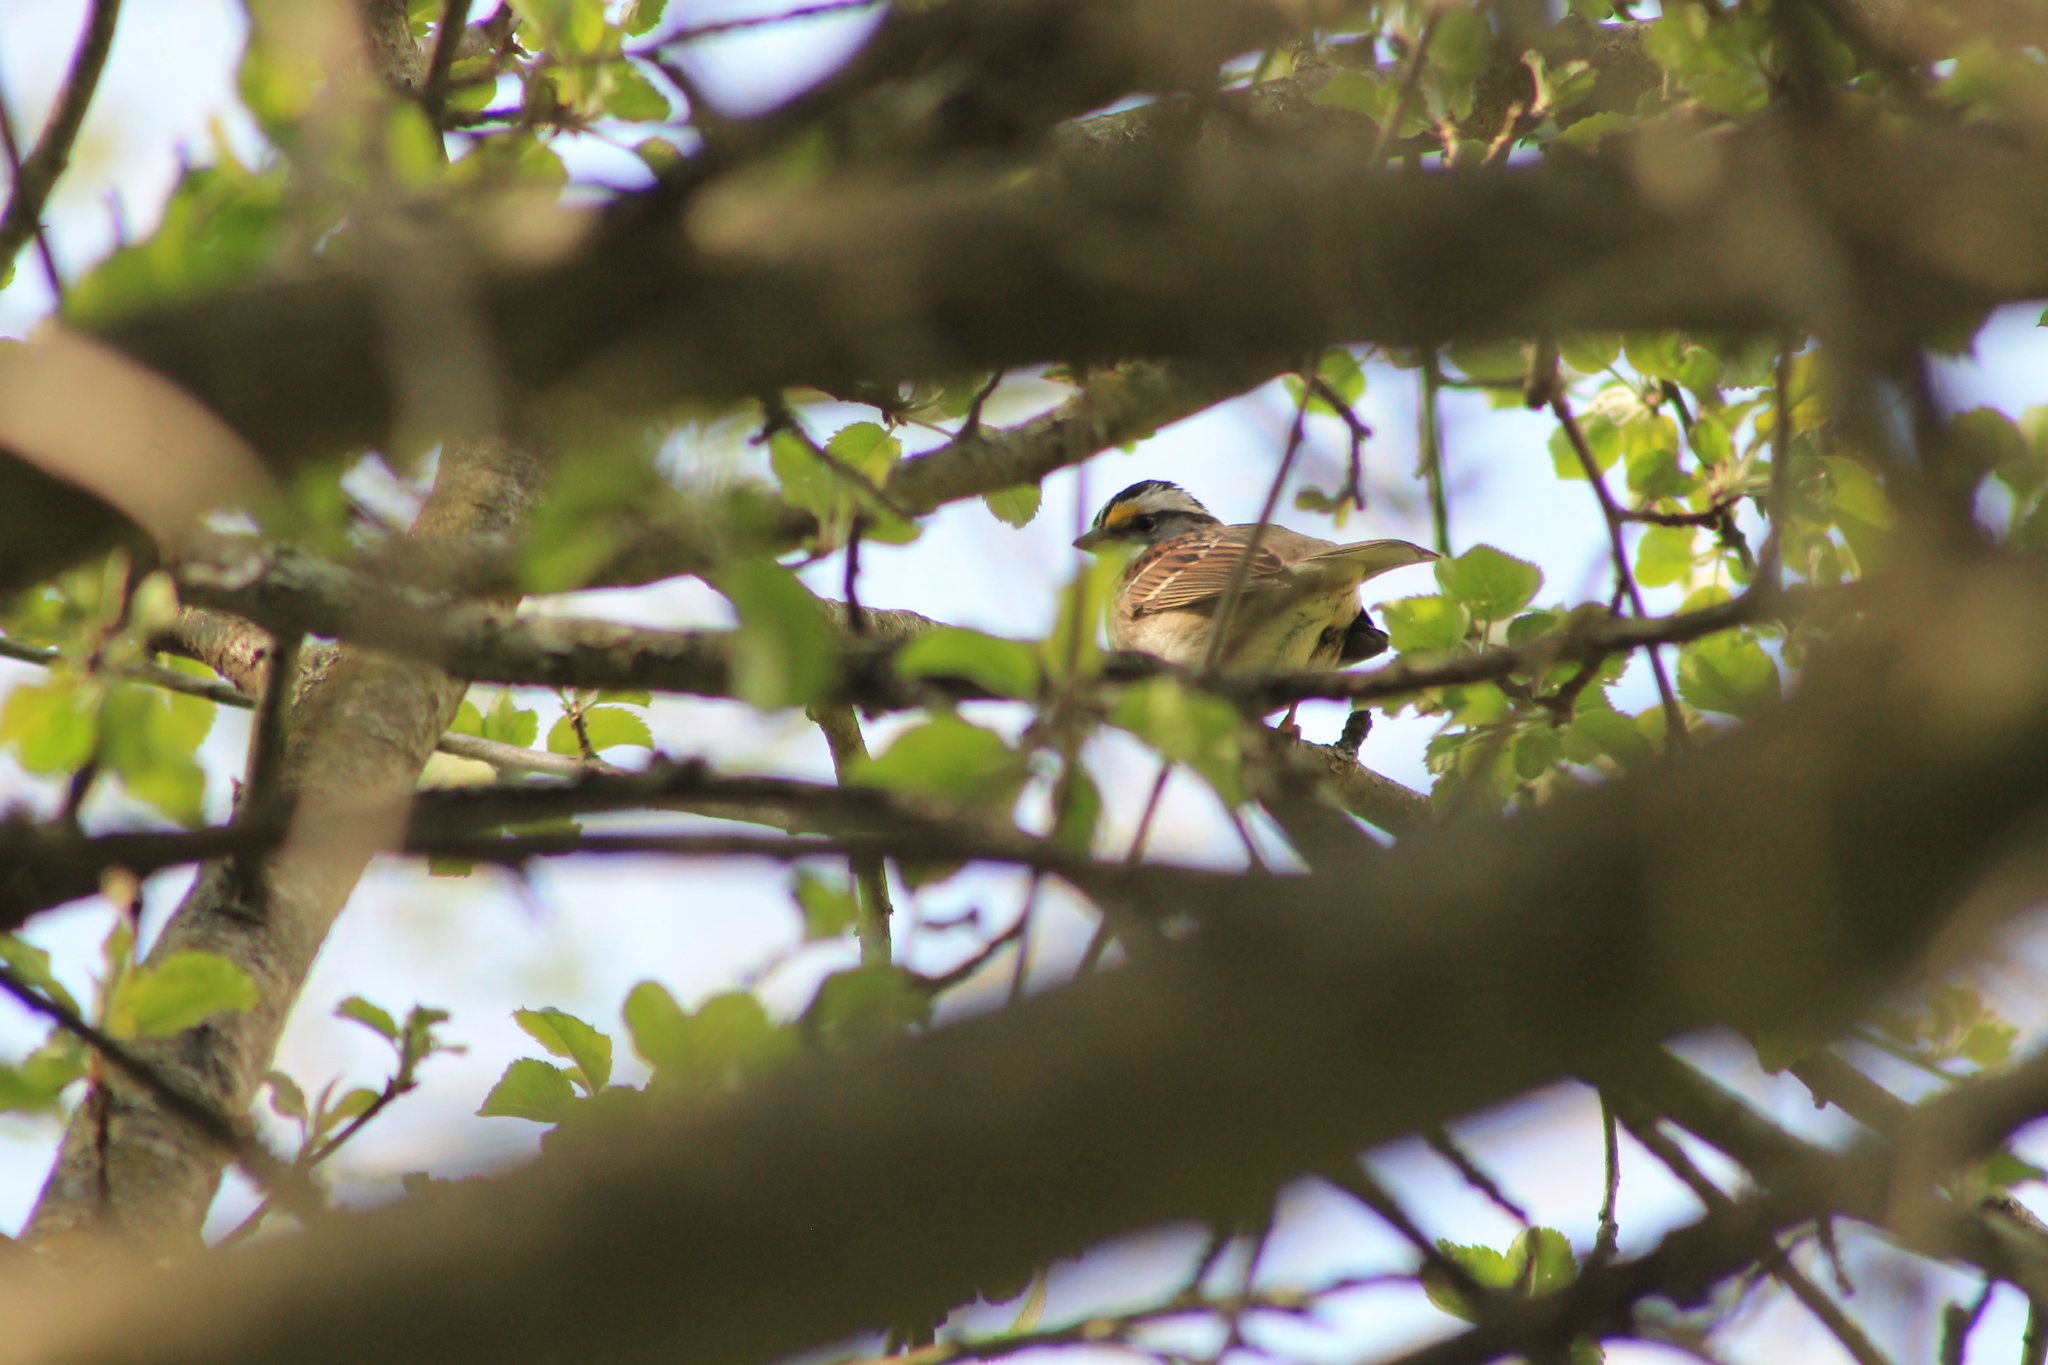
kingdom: Animalia
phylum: Chordata
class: Aves
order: Passeriformes
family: Passerellidae
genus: Zonotrichia
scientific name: Zonotrichia albicollis
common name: White-throated sparrow
